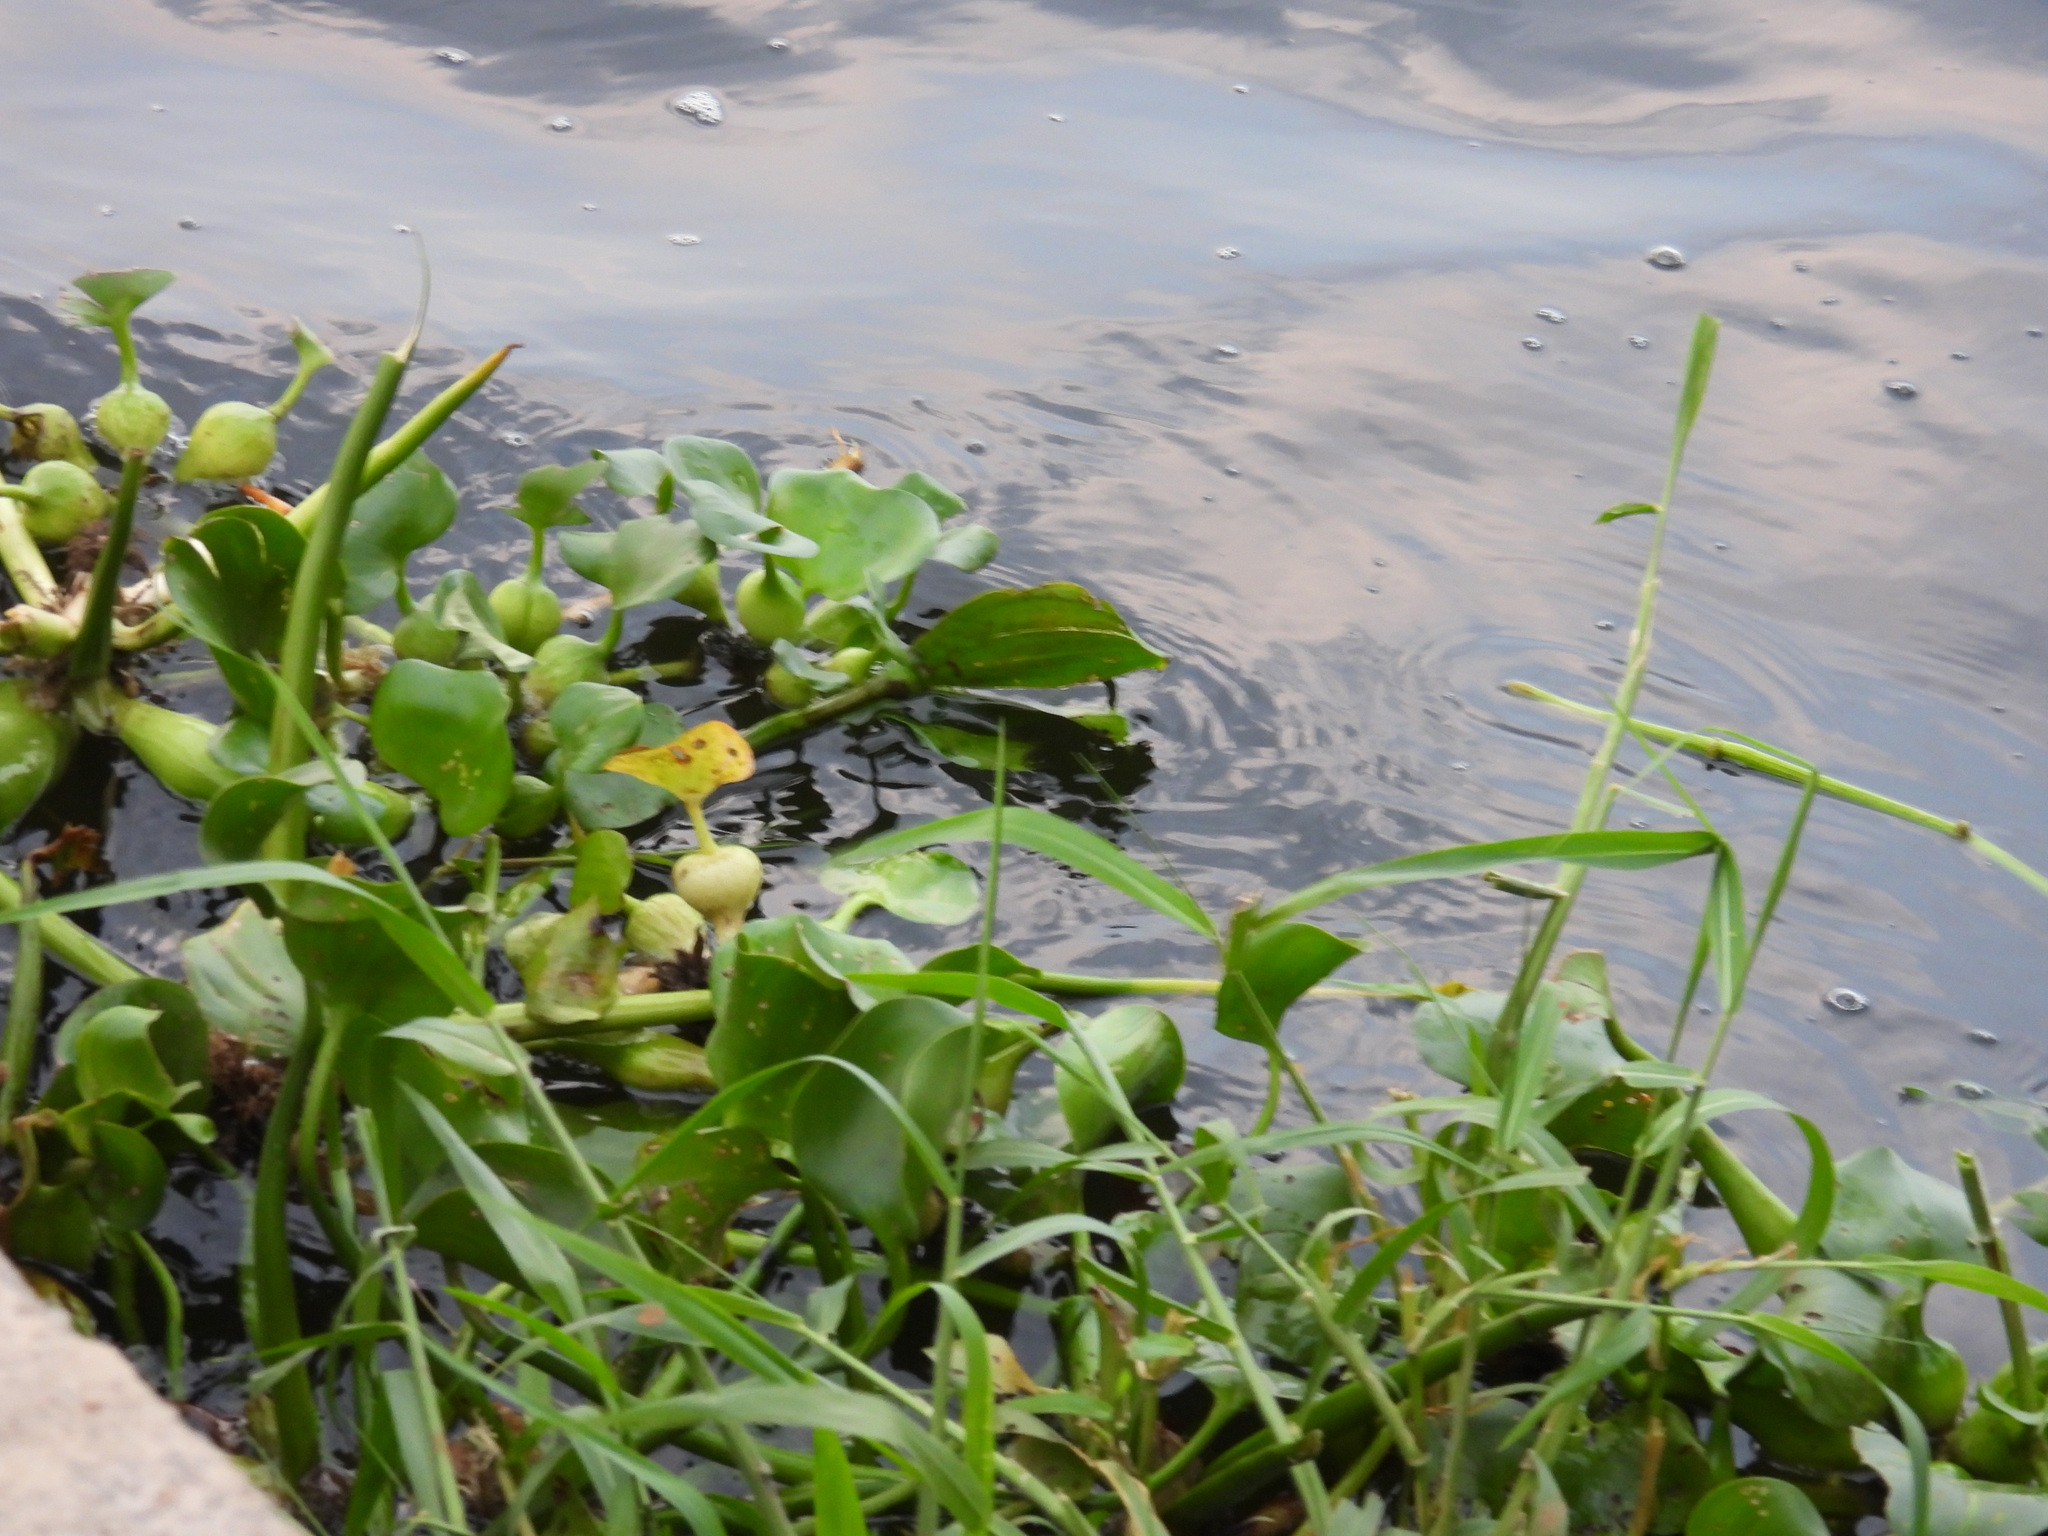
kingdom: Plantae
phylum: Tracheophyta
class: Liliopsida
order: Commelinales
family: Pontederiaceae
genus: Pontederia
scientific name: Pontederia crassipes
